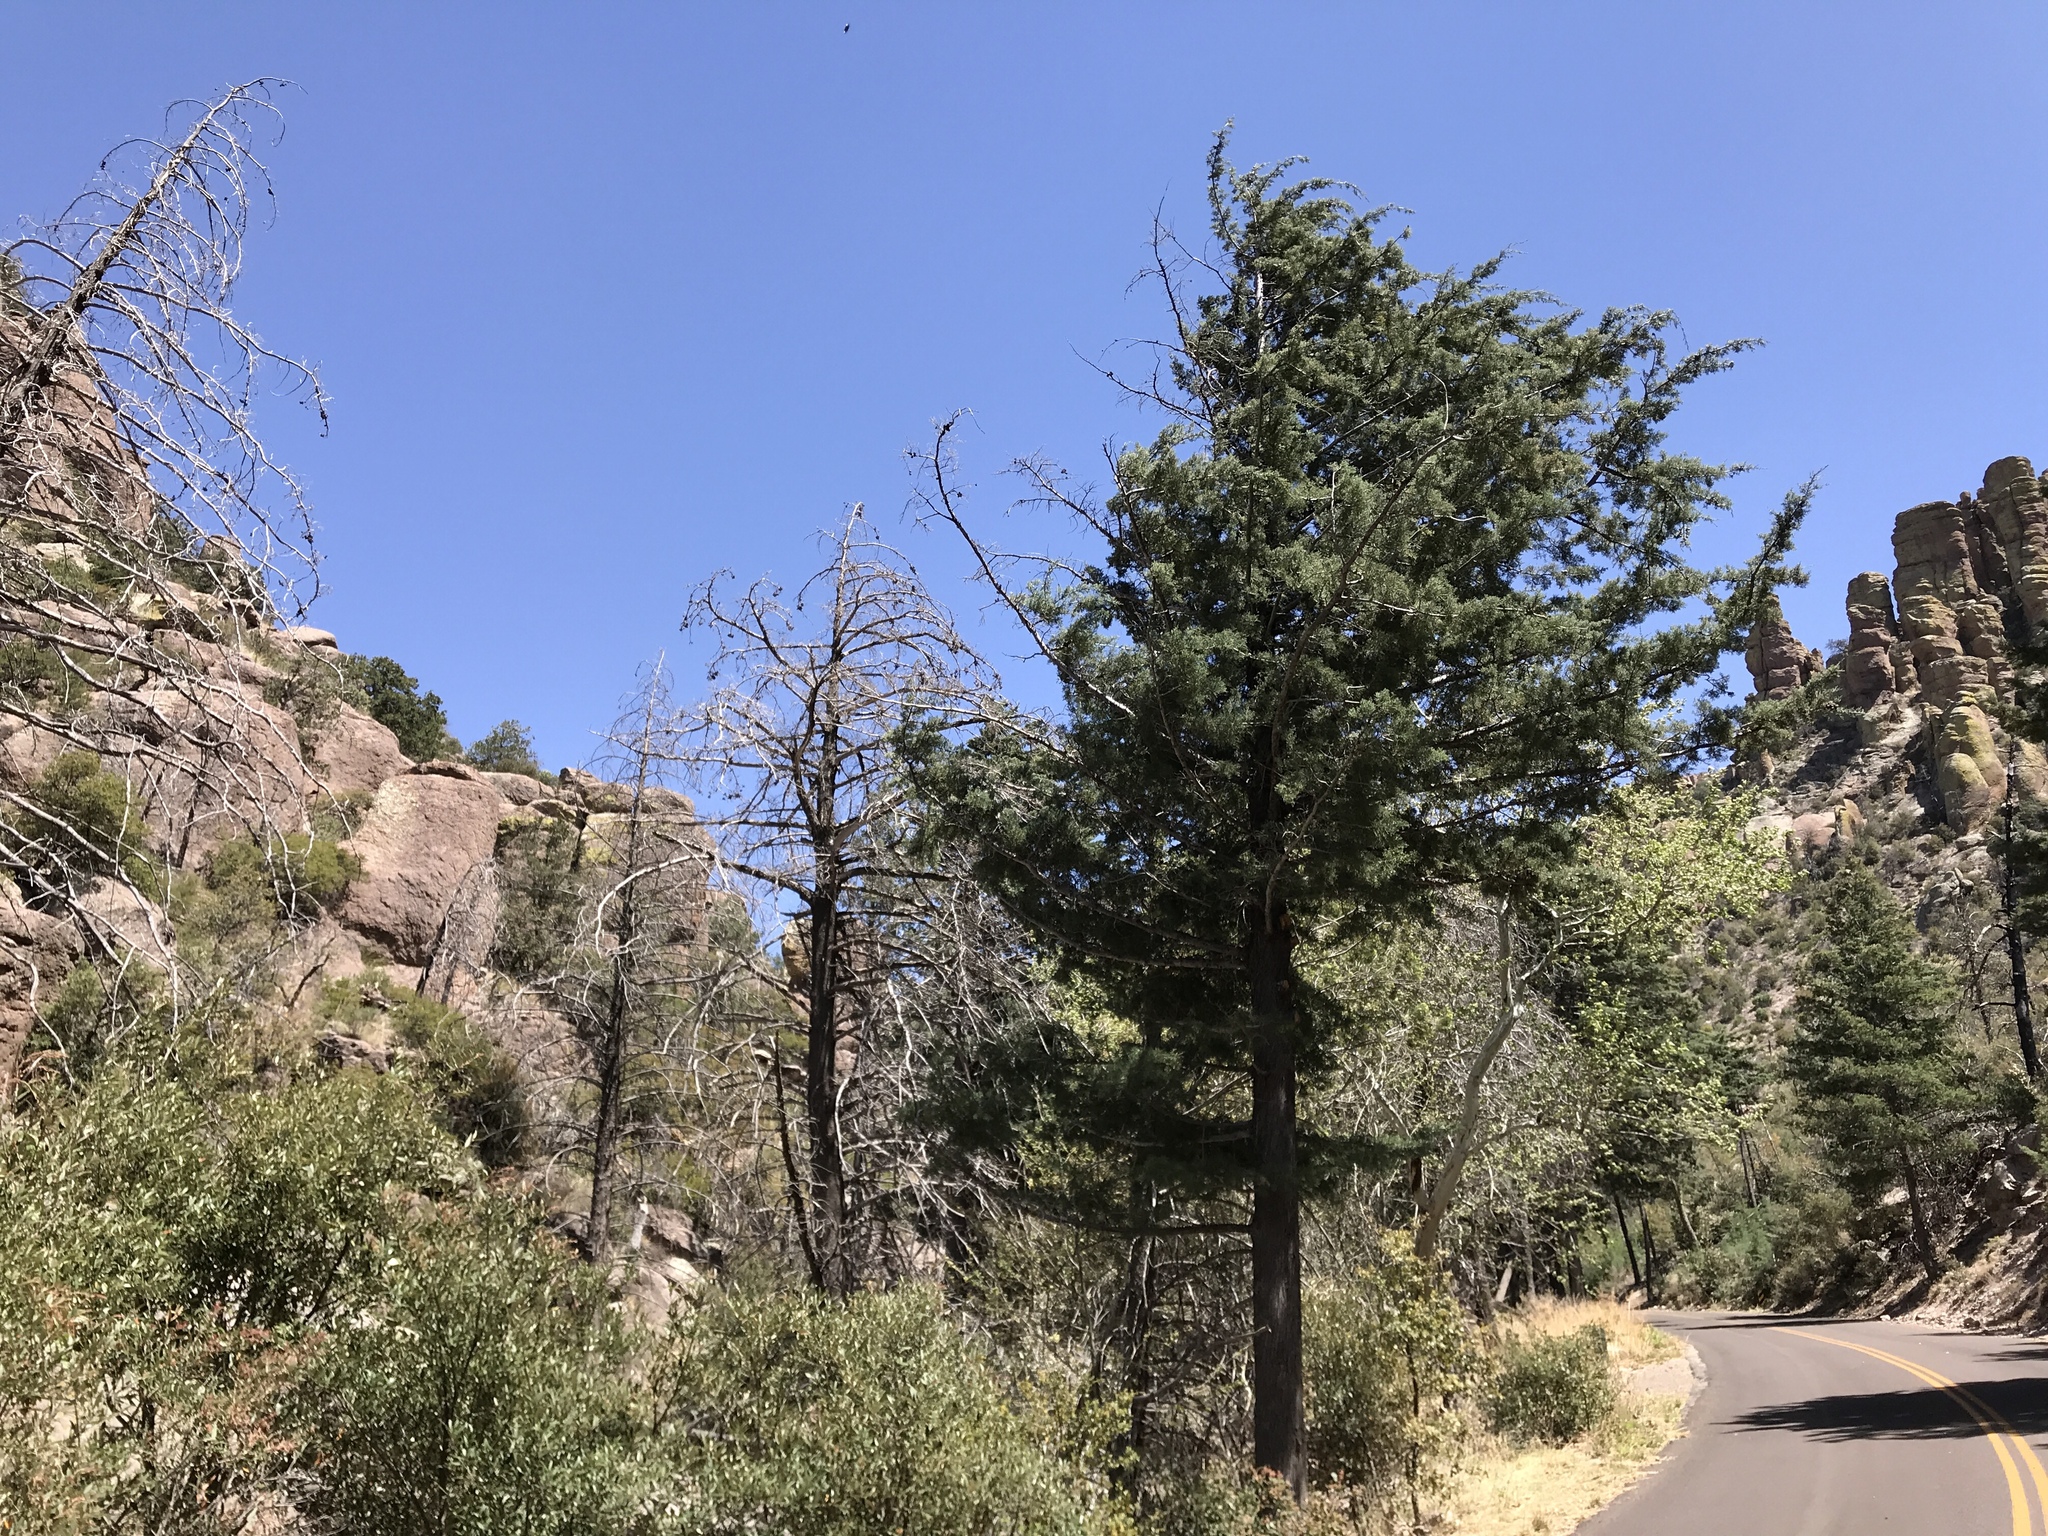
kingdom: Plantae
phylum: Tracheophyta
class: Pinopsida
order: Pinales
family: Cupressaceae
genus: Cupressus
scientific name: Cupressus arizonica
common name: Arizona cypress
